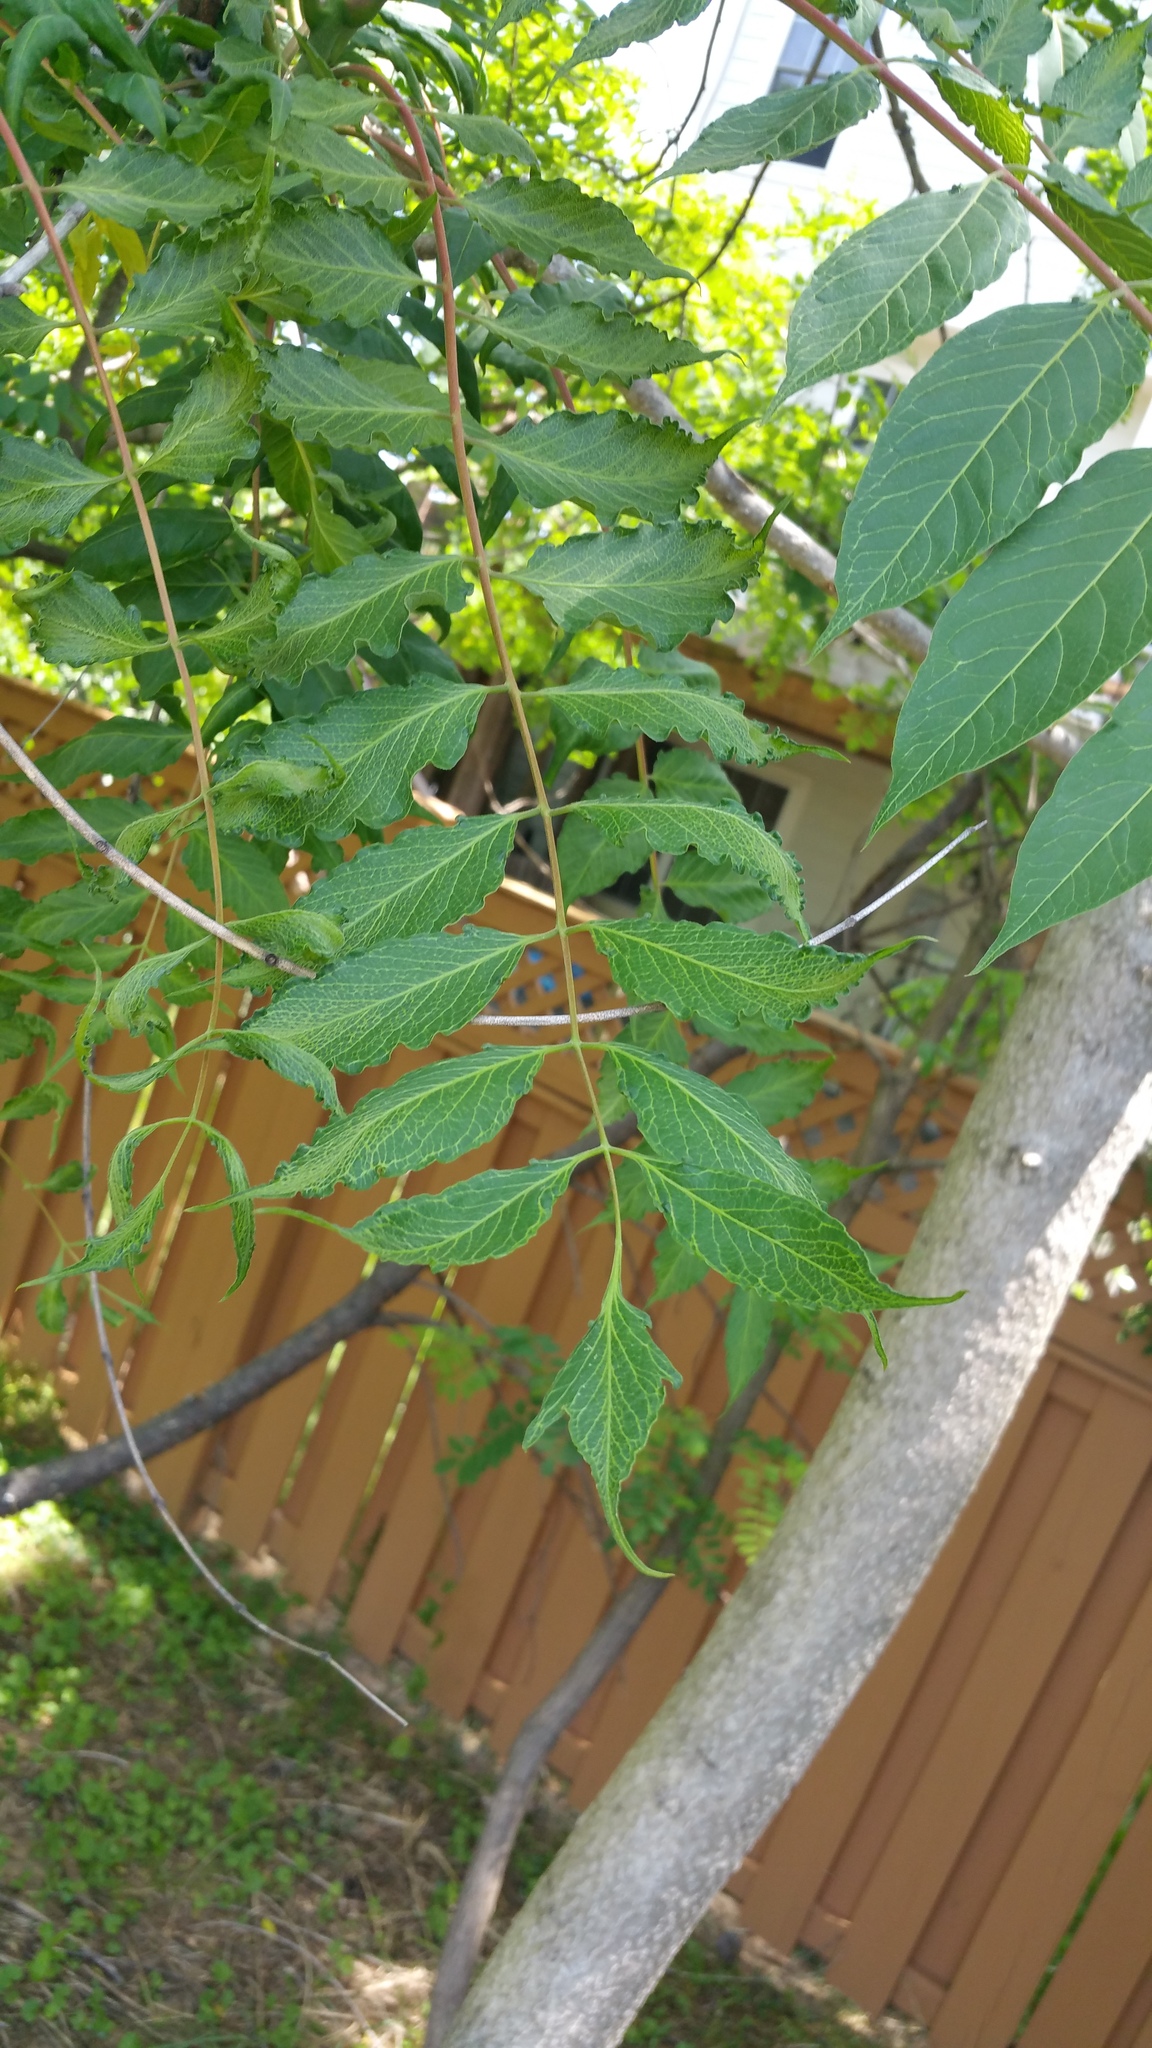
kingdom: Plantae
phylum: Tracheophyta
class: Magnoliopsida
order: Sapindales
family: Simaroubaceae
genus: Ailanthus
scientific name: Ailanthus altissima
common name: Tree-of-heaven
